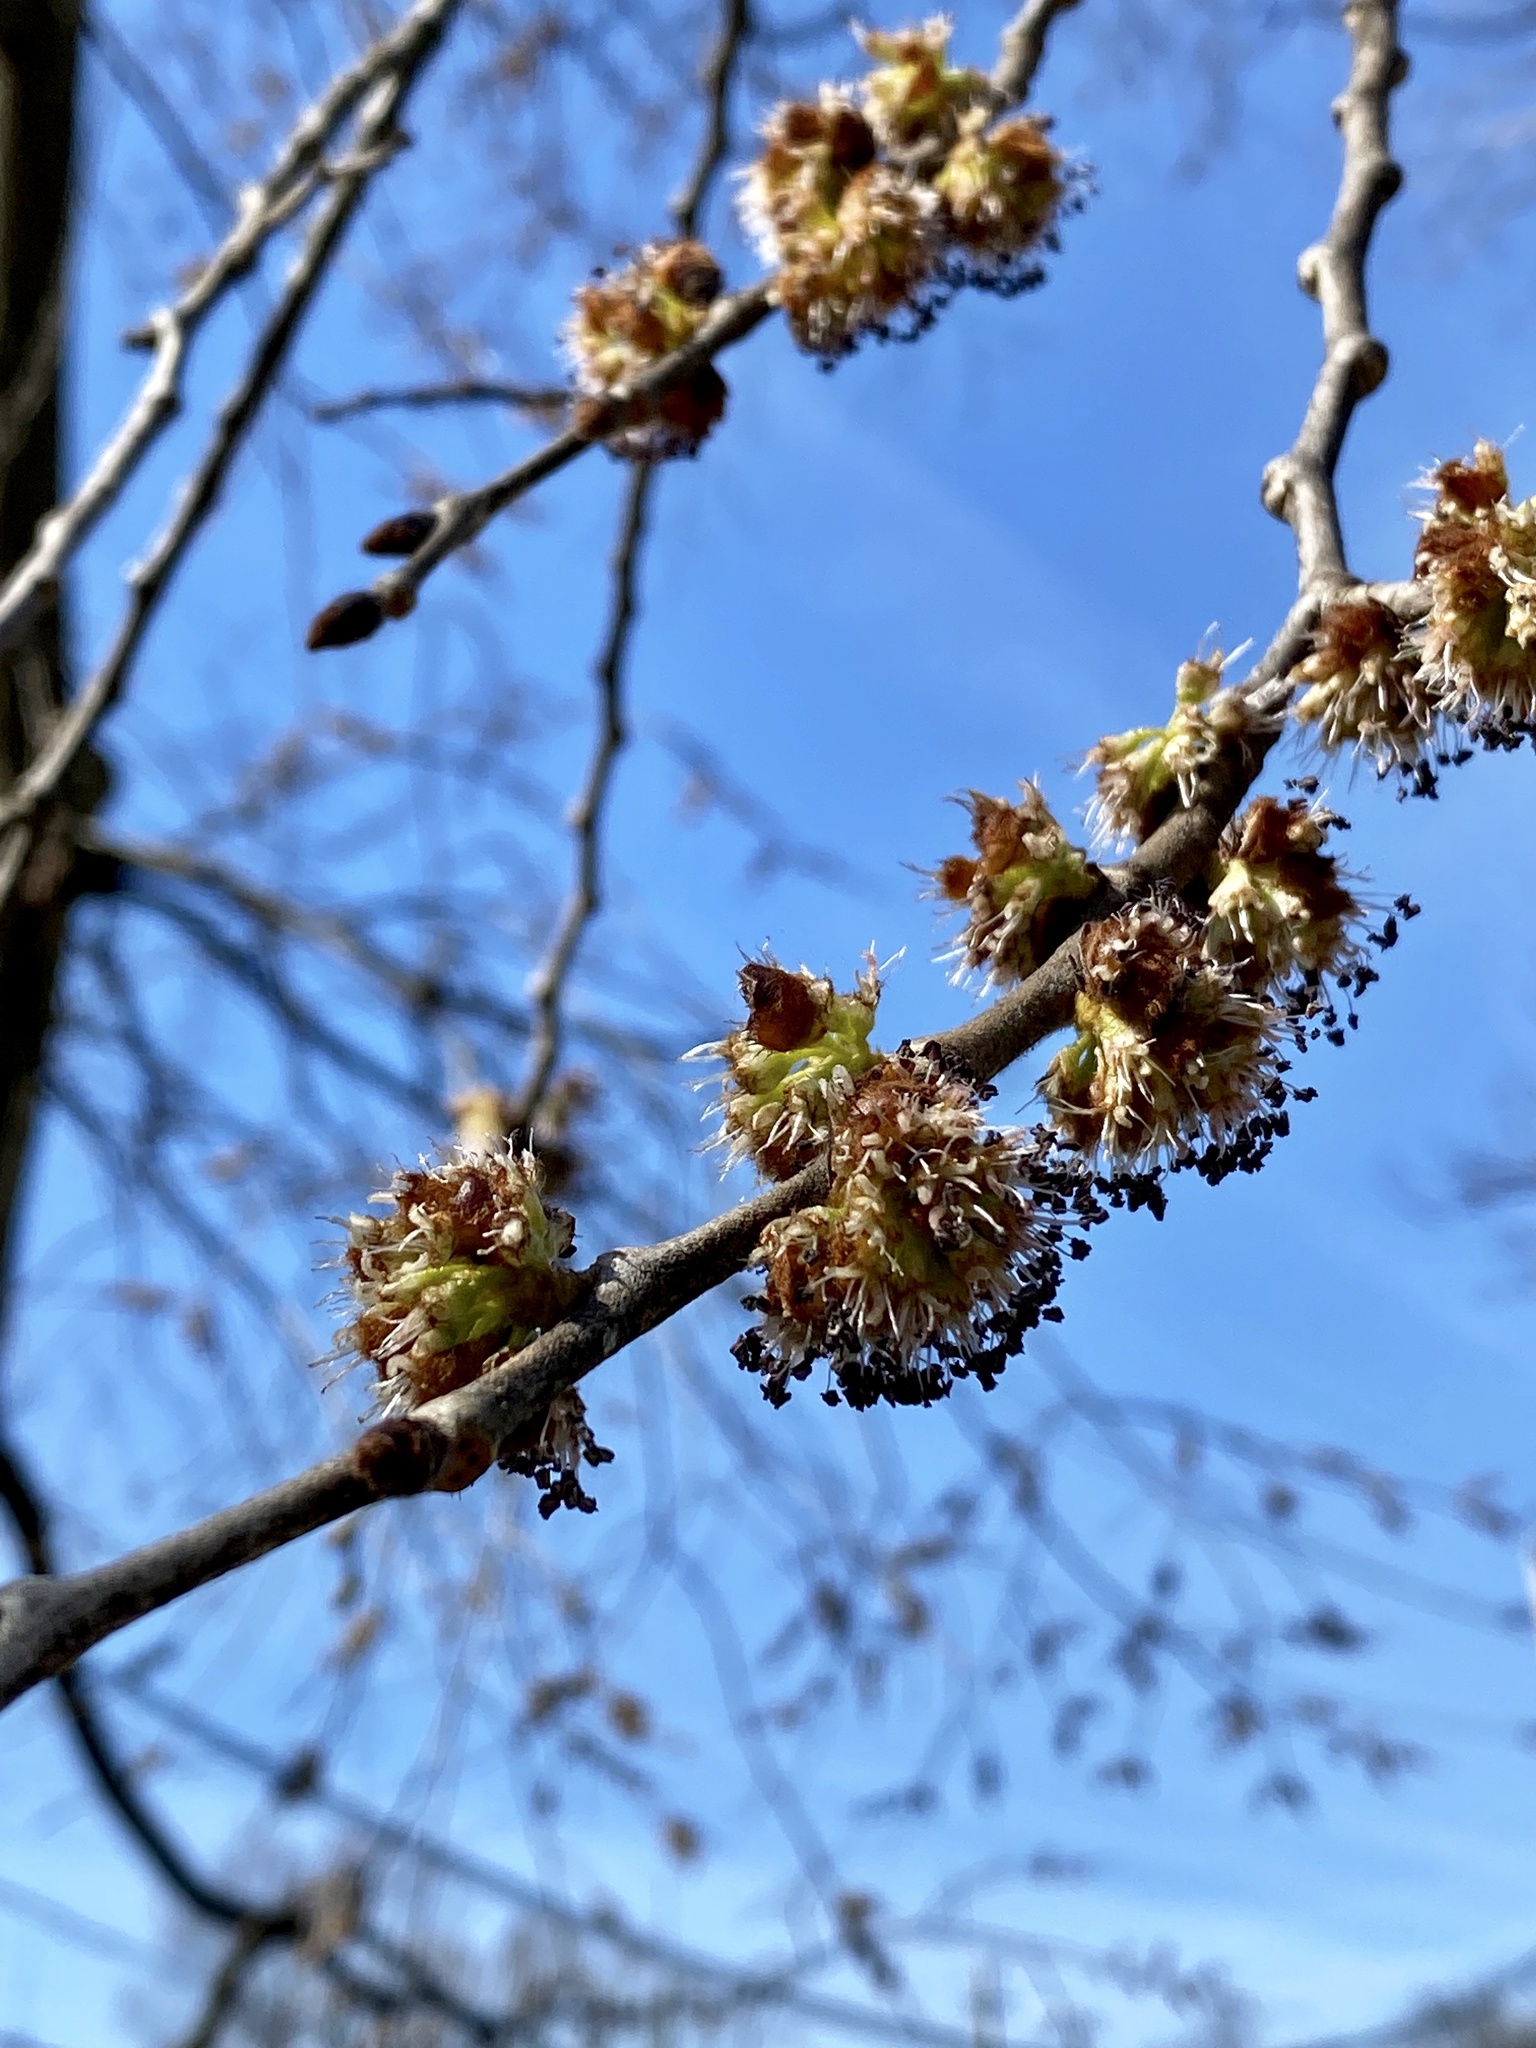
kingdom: Plantae
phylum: Tracheophyta
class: Magnoliopsida
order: Rosales
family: Ulmaceae
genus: Ulmus
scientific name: Ulmus rubra
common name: Slippery elm
